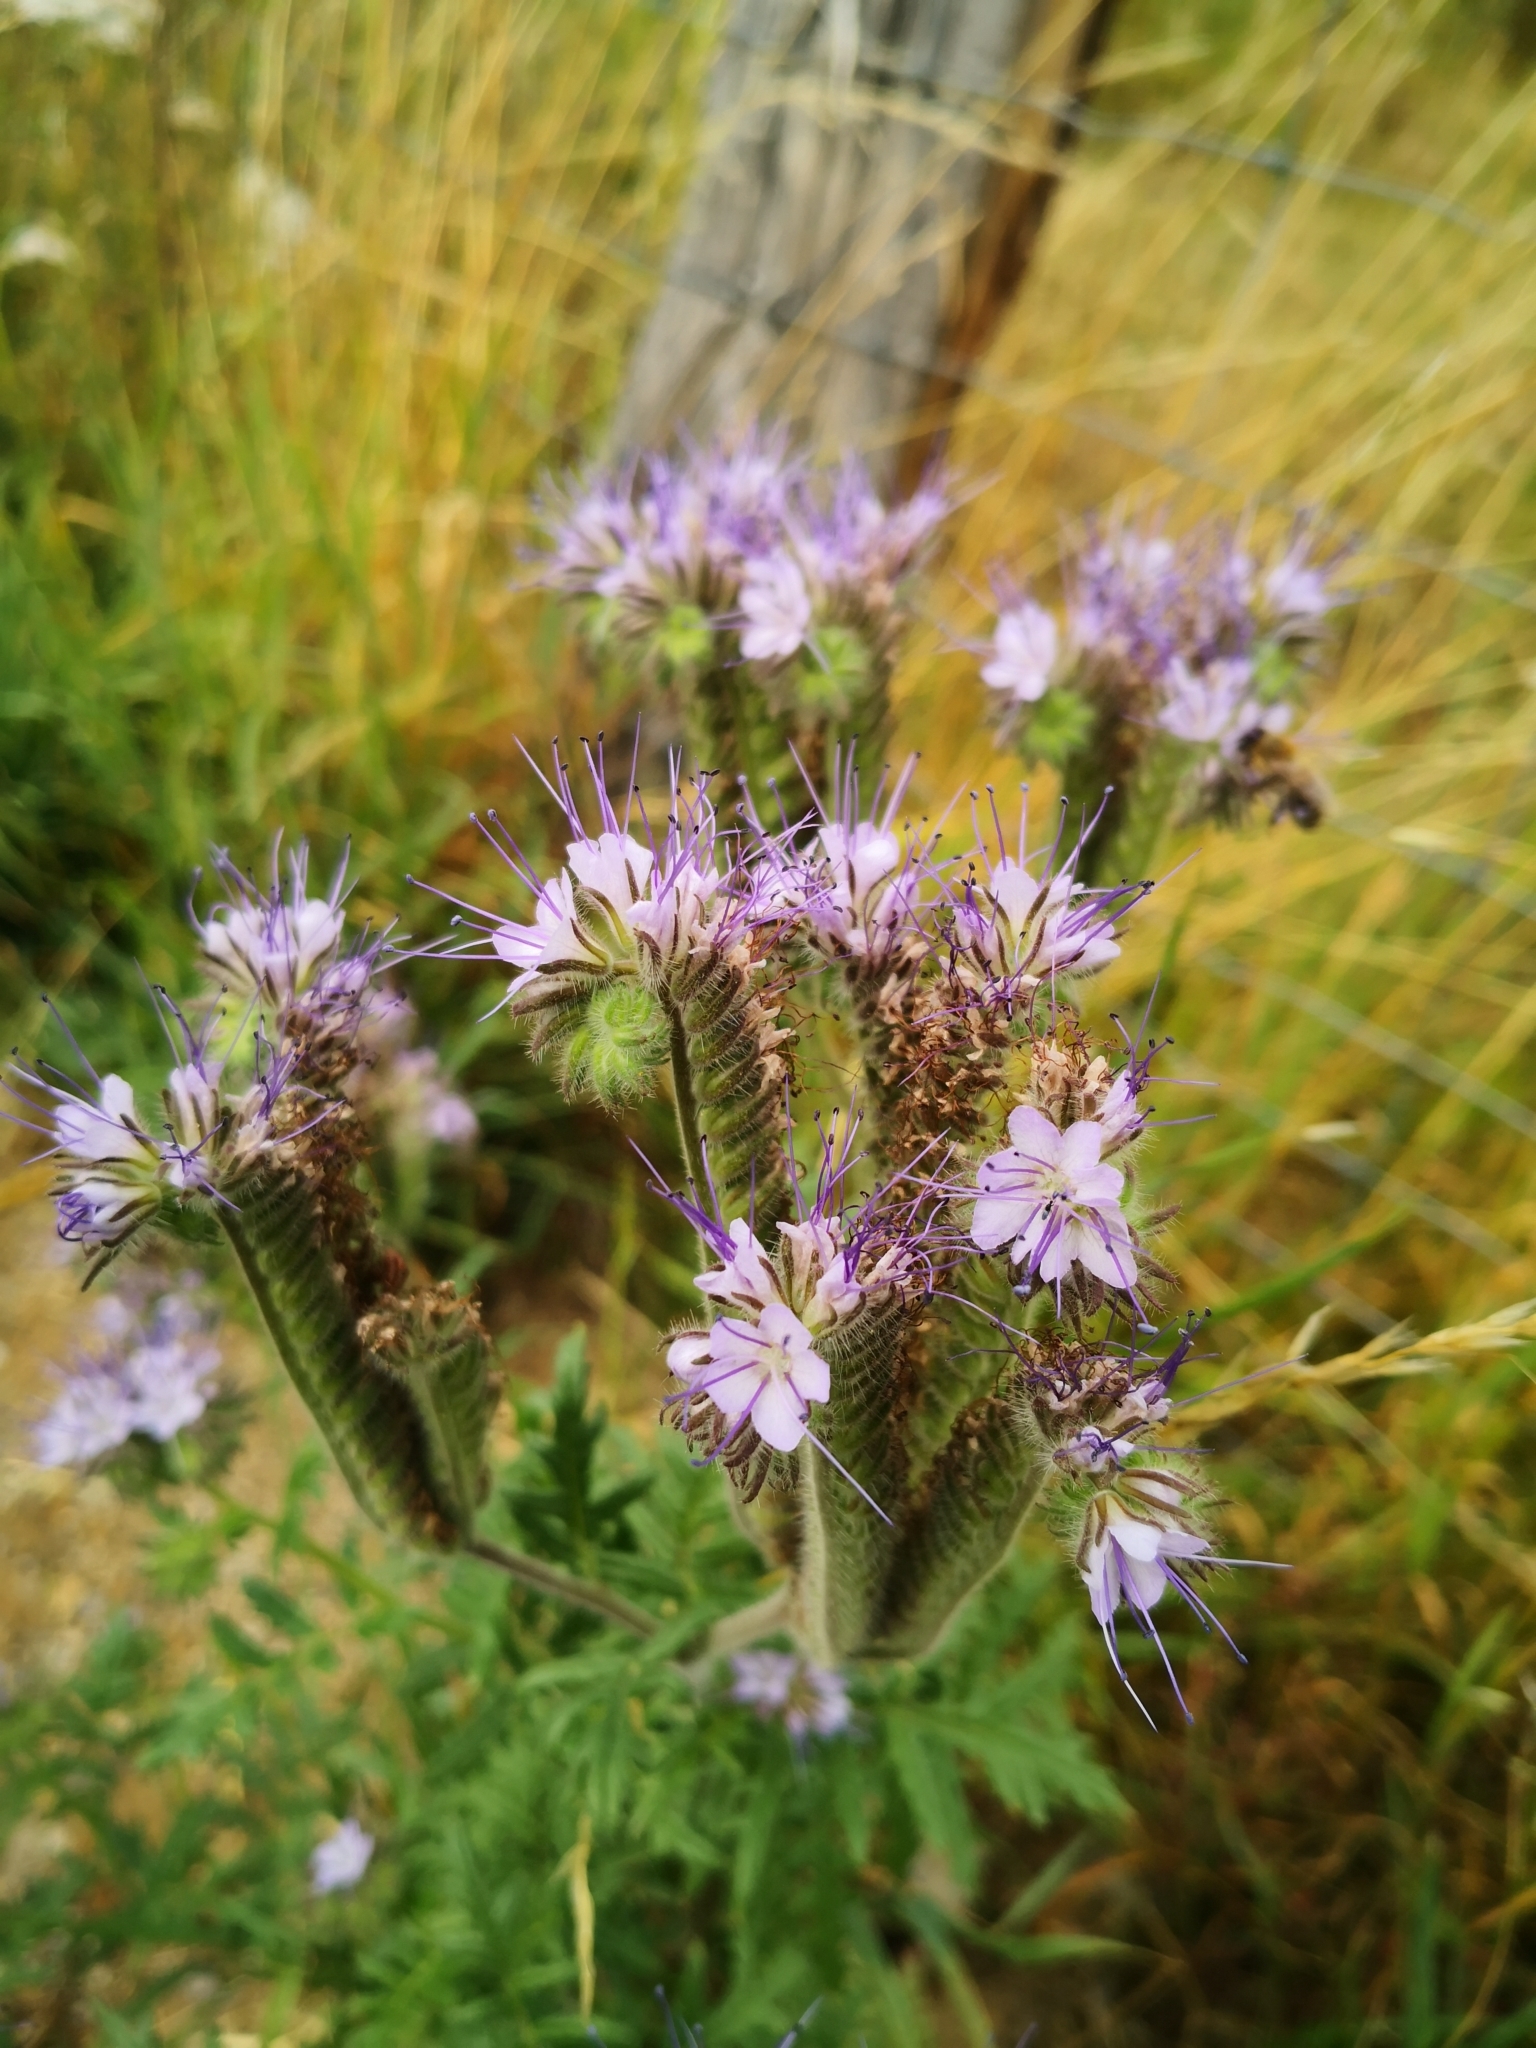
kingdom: Plantae
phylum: Tracheophyta
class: Magnoliopsida
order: Boraginales
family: Hydrophyllaceae
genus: Phacelia
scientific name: Phacelia tanacetifolia
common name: Phacelia
